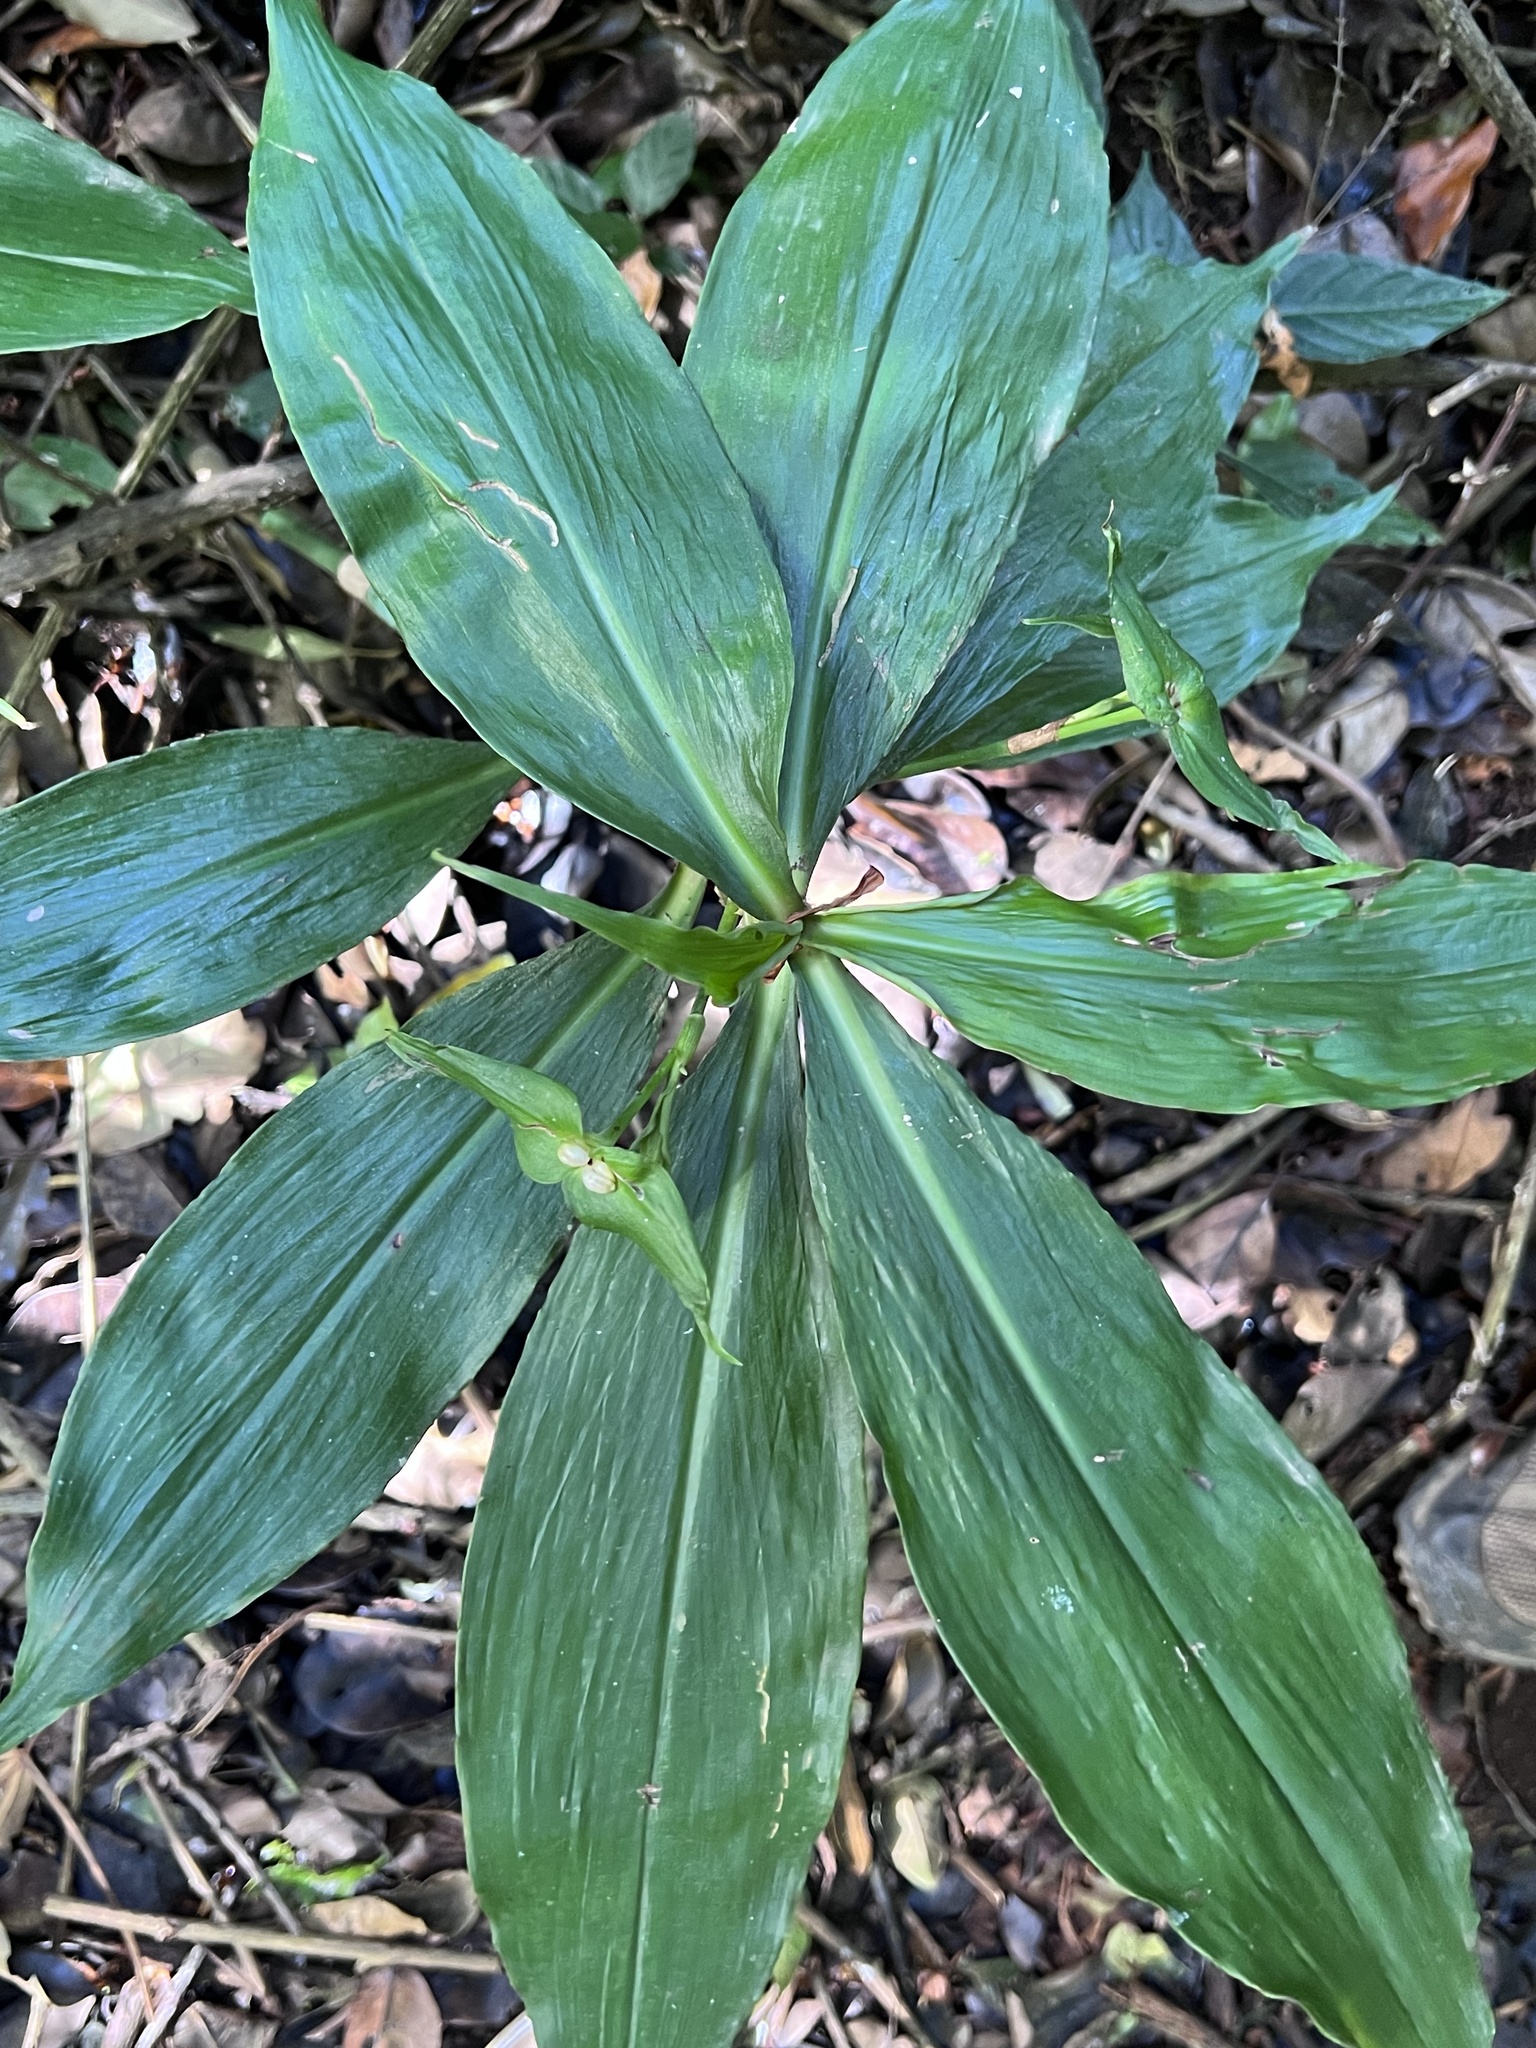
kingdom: Plantae
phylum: Tracheophyta
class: Liliopsida
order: Commelinales
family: Commelinaceae
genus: Tradescantia
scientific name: Tradescantia zanonia
